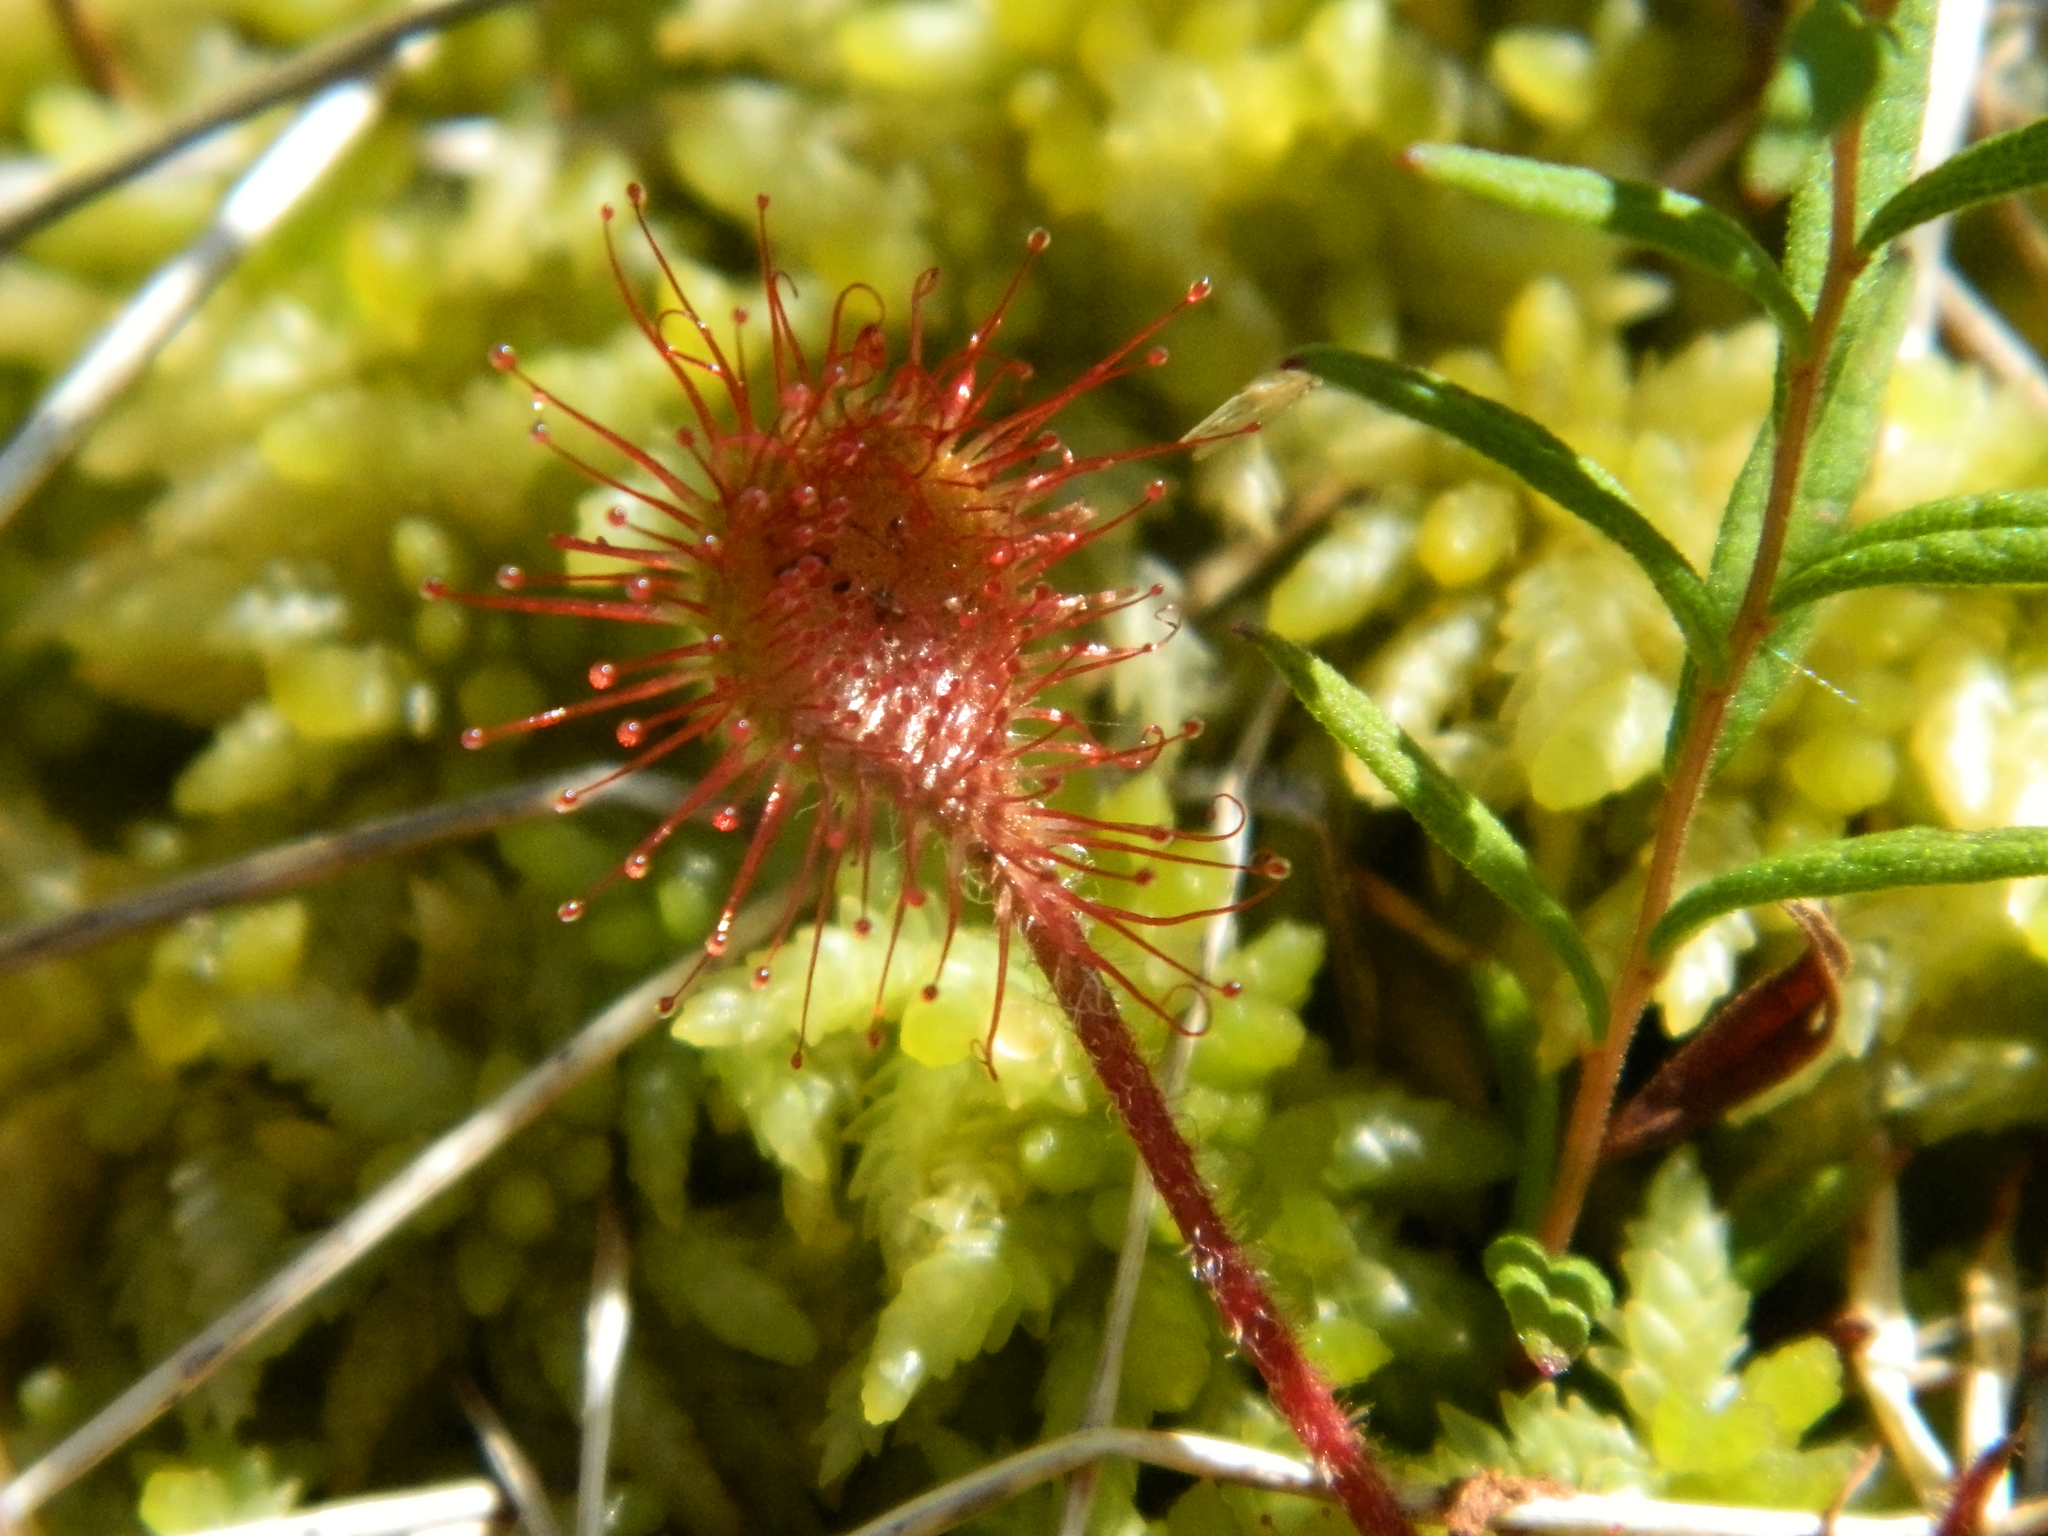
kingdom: Plantae
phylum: Tracheophyta
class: Magnoliopsida
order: Caryophyllales
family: Droseraceae
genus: Drosera
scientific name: Drosera rotundifolia
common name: Round-leaved sundew
